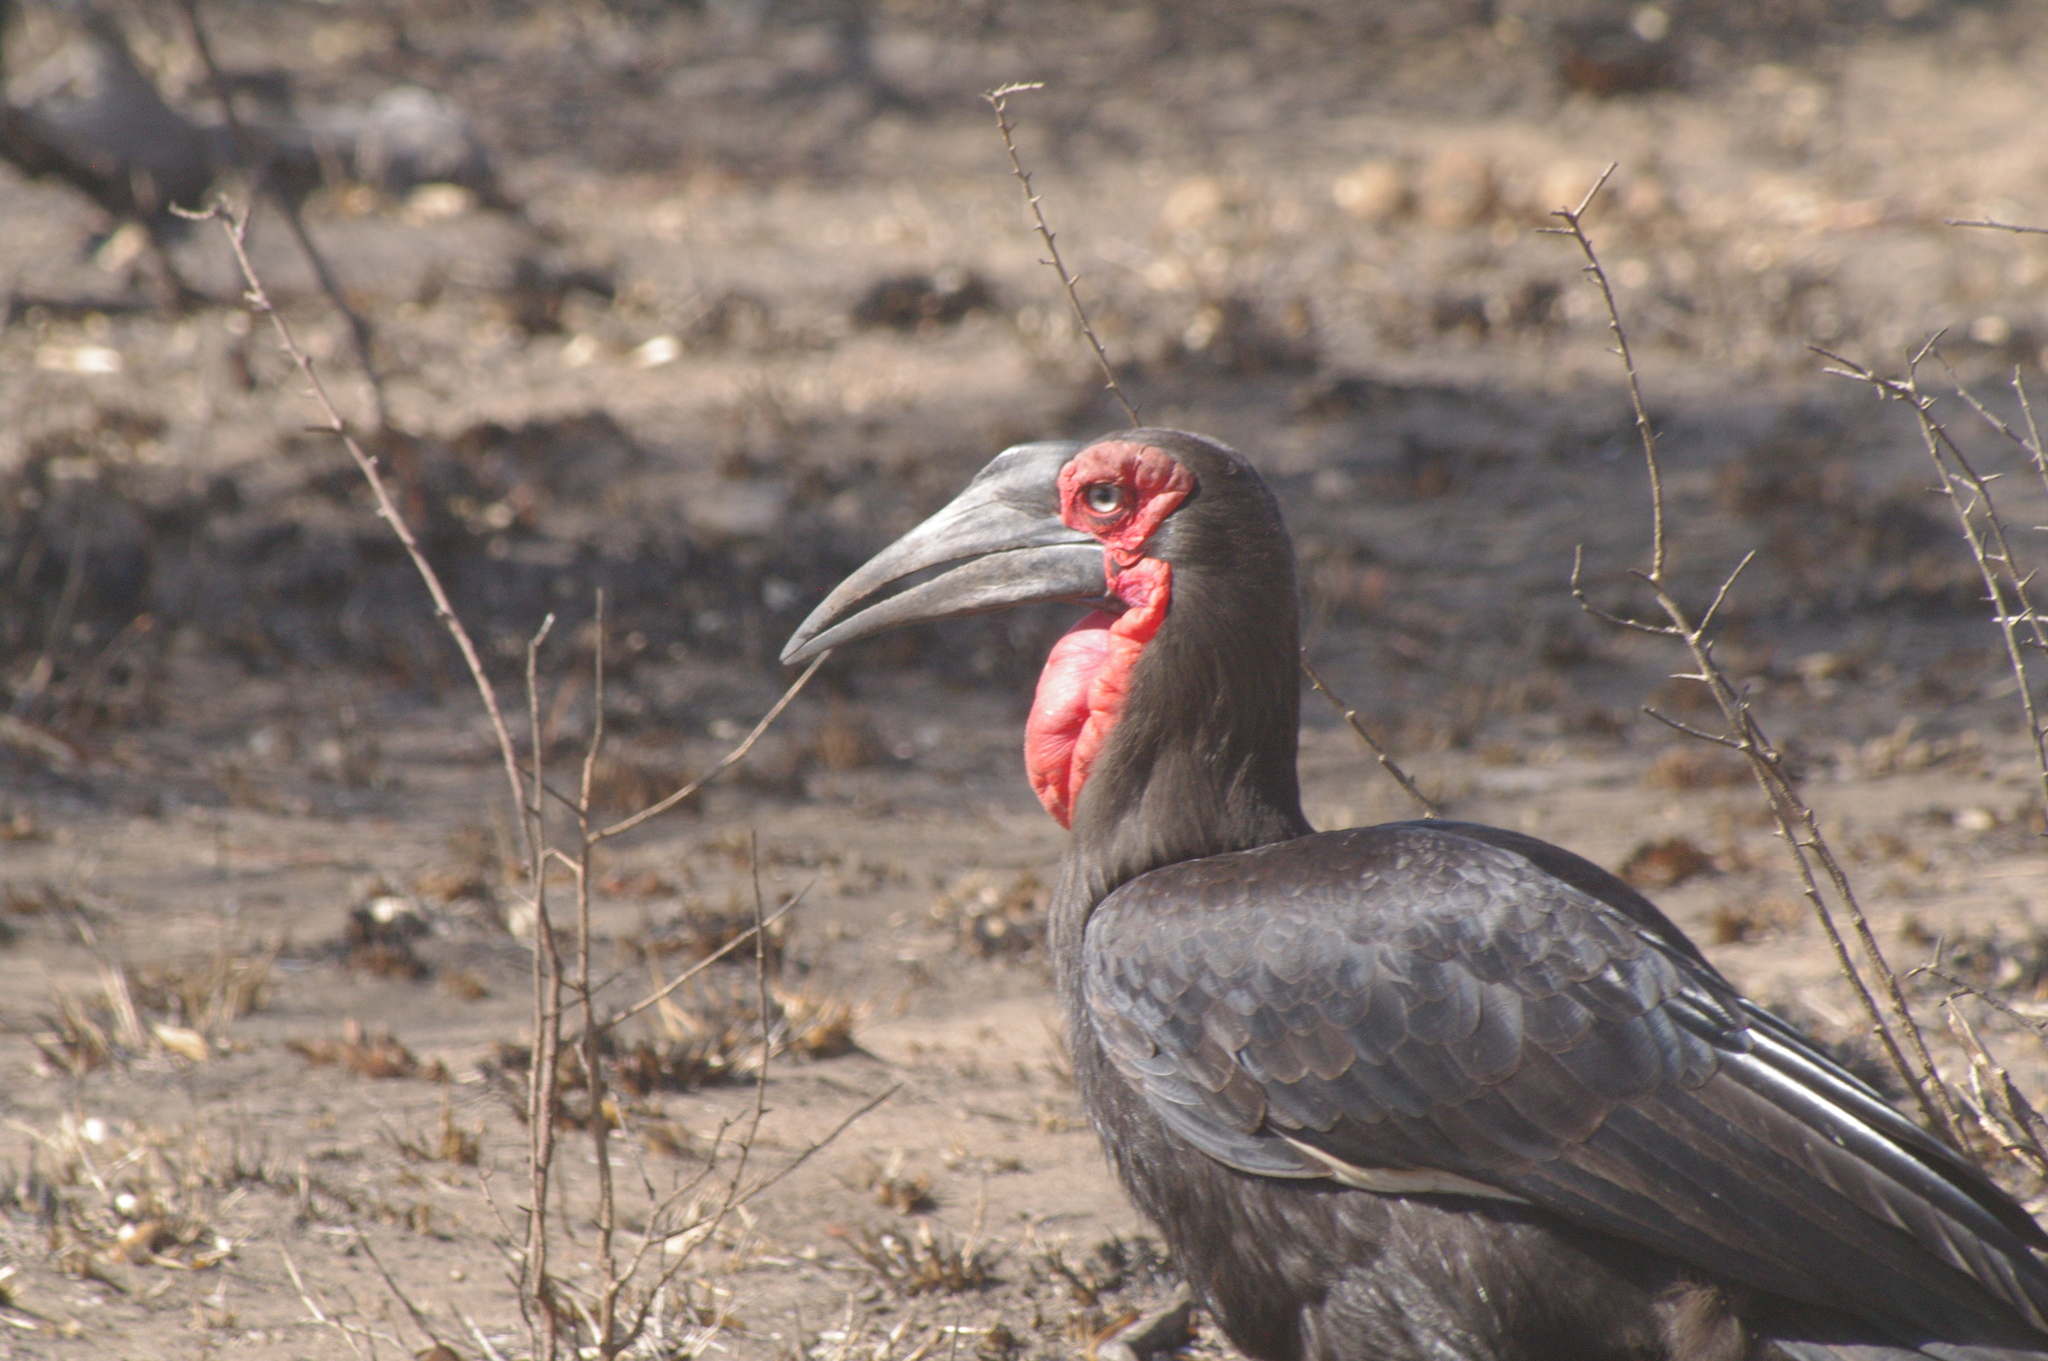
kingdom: Animalia
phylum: Chordata
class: Aves
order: Bucerotiformes
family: Bucorvidae
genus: Bucorvus
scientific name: Bucorvus leadbeateri
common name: Southern ground-hornbill
